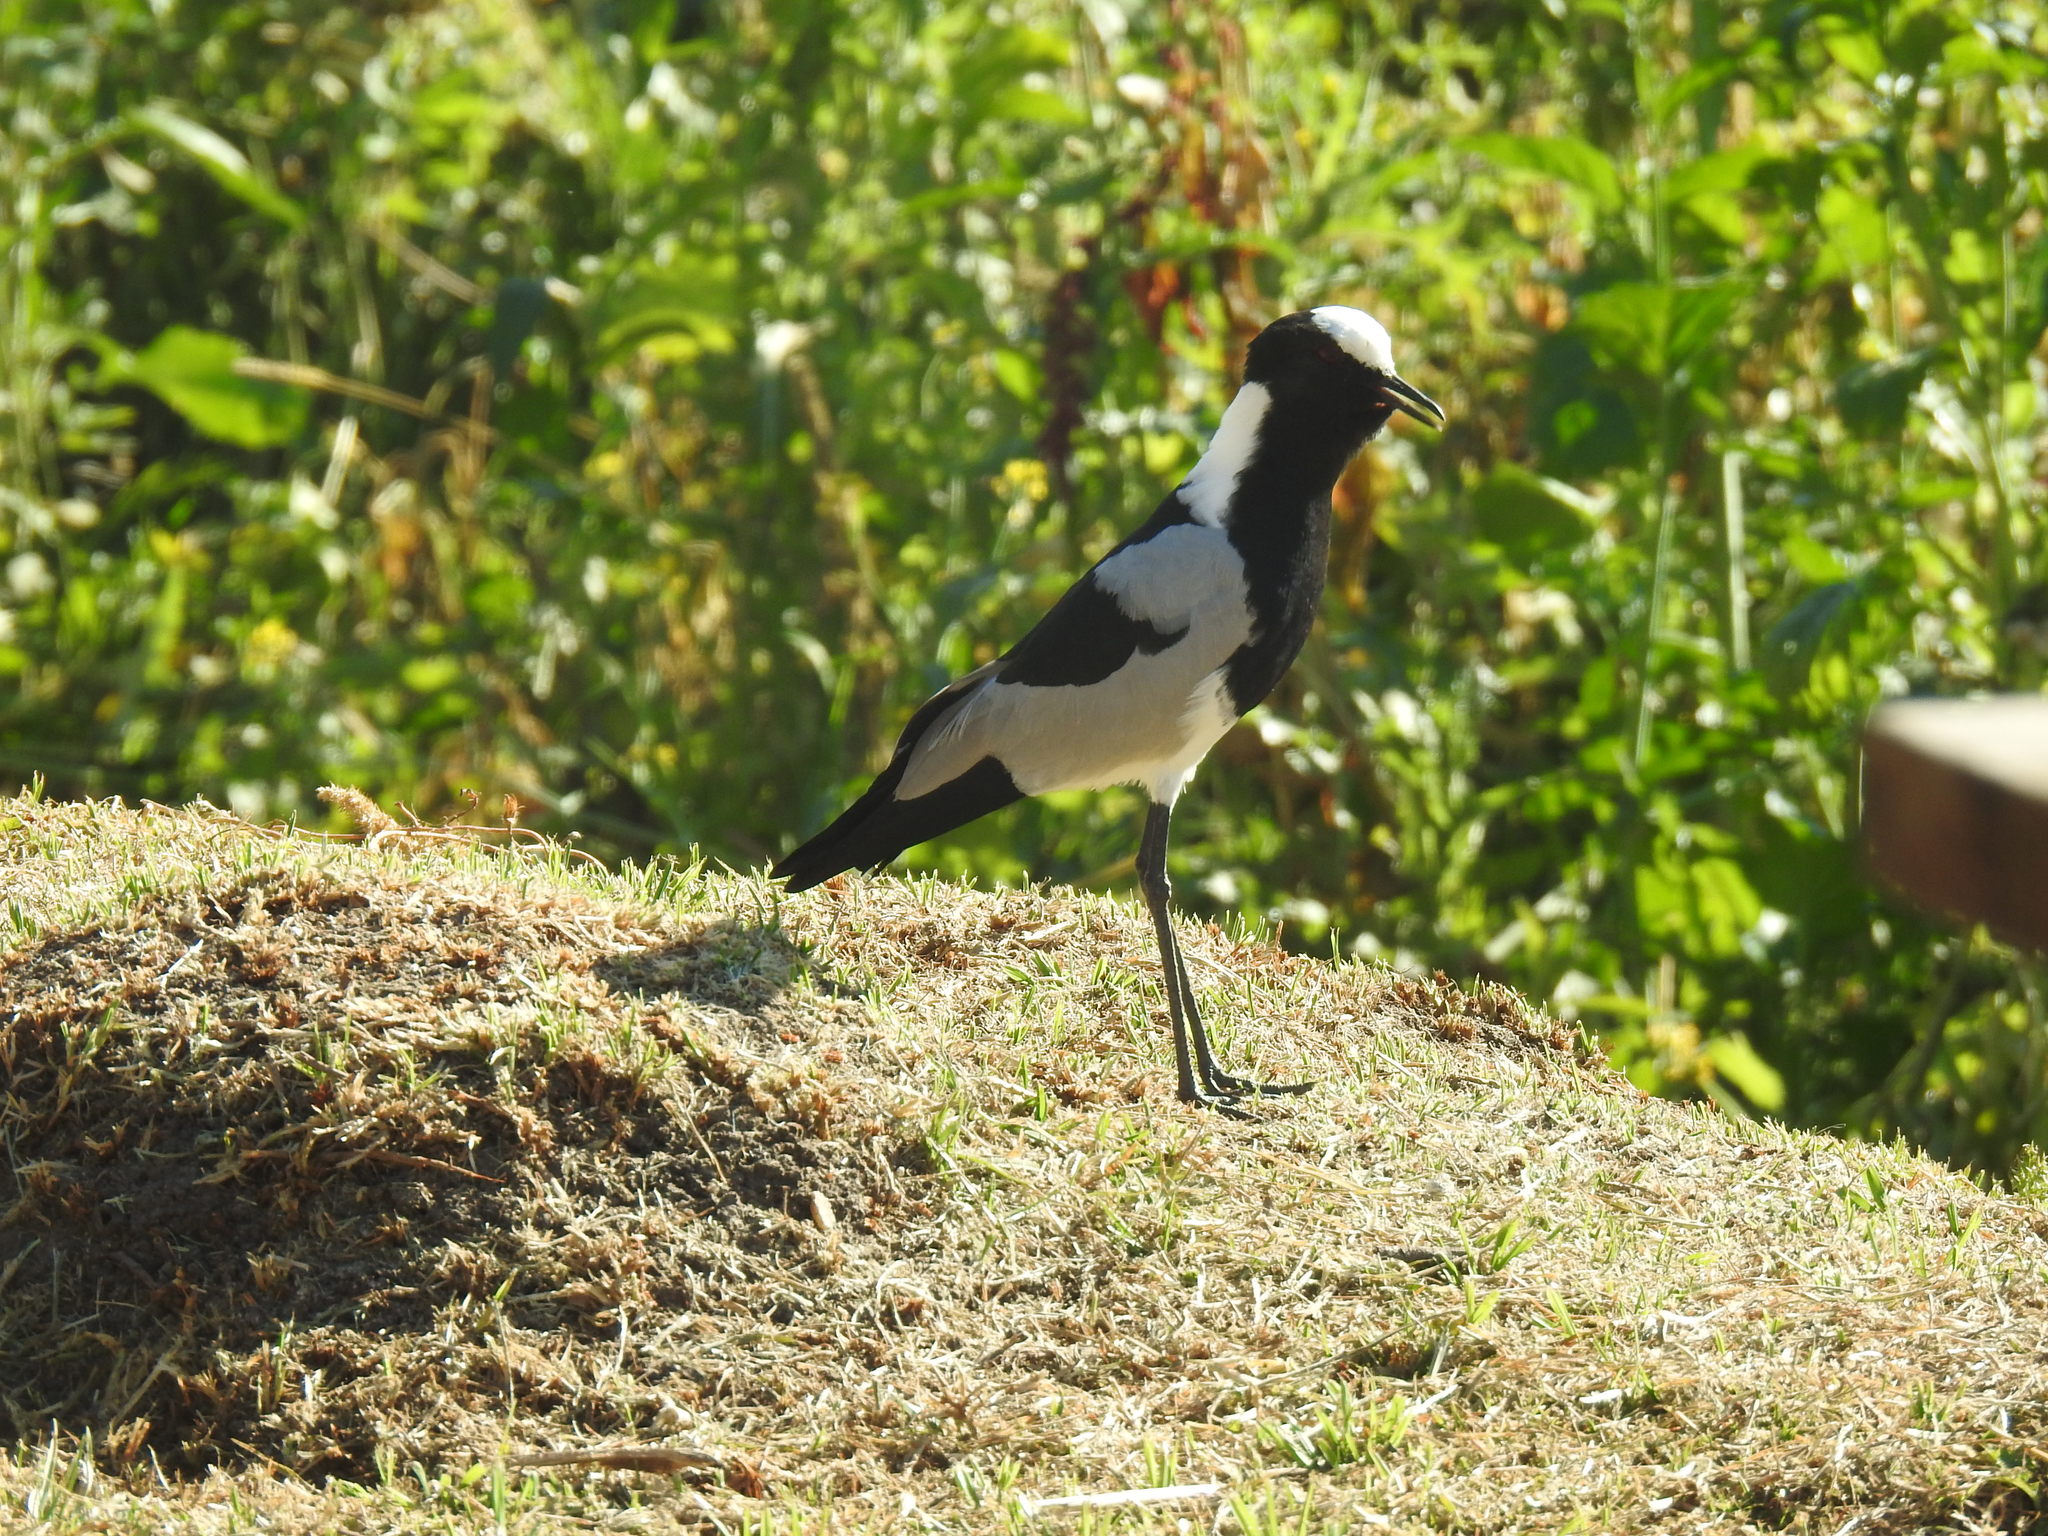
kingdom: Animalia
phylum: Chordata
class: Aves
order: Charadriiformes
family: Charadriidae
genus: Vanellus
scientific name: Vanellus armatus
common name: Blacksmith lapwing
